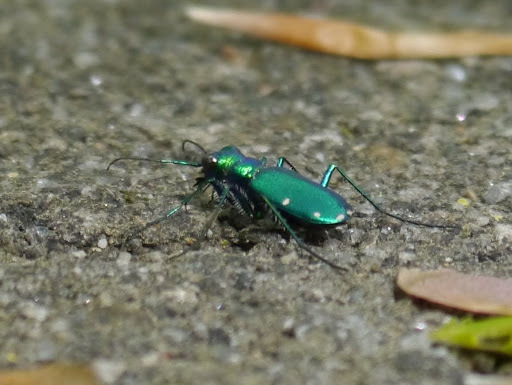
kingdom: Animalia
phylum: Arthropoda
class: Insecta
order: Coleoptera
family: Carabidae
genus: Cicindela
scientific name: Cicindela sexguttata
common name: Six-spotted tiger beetle
